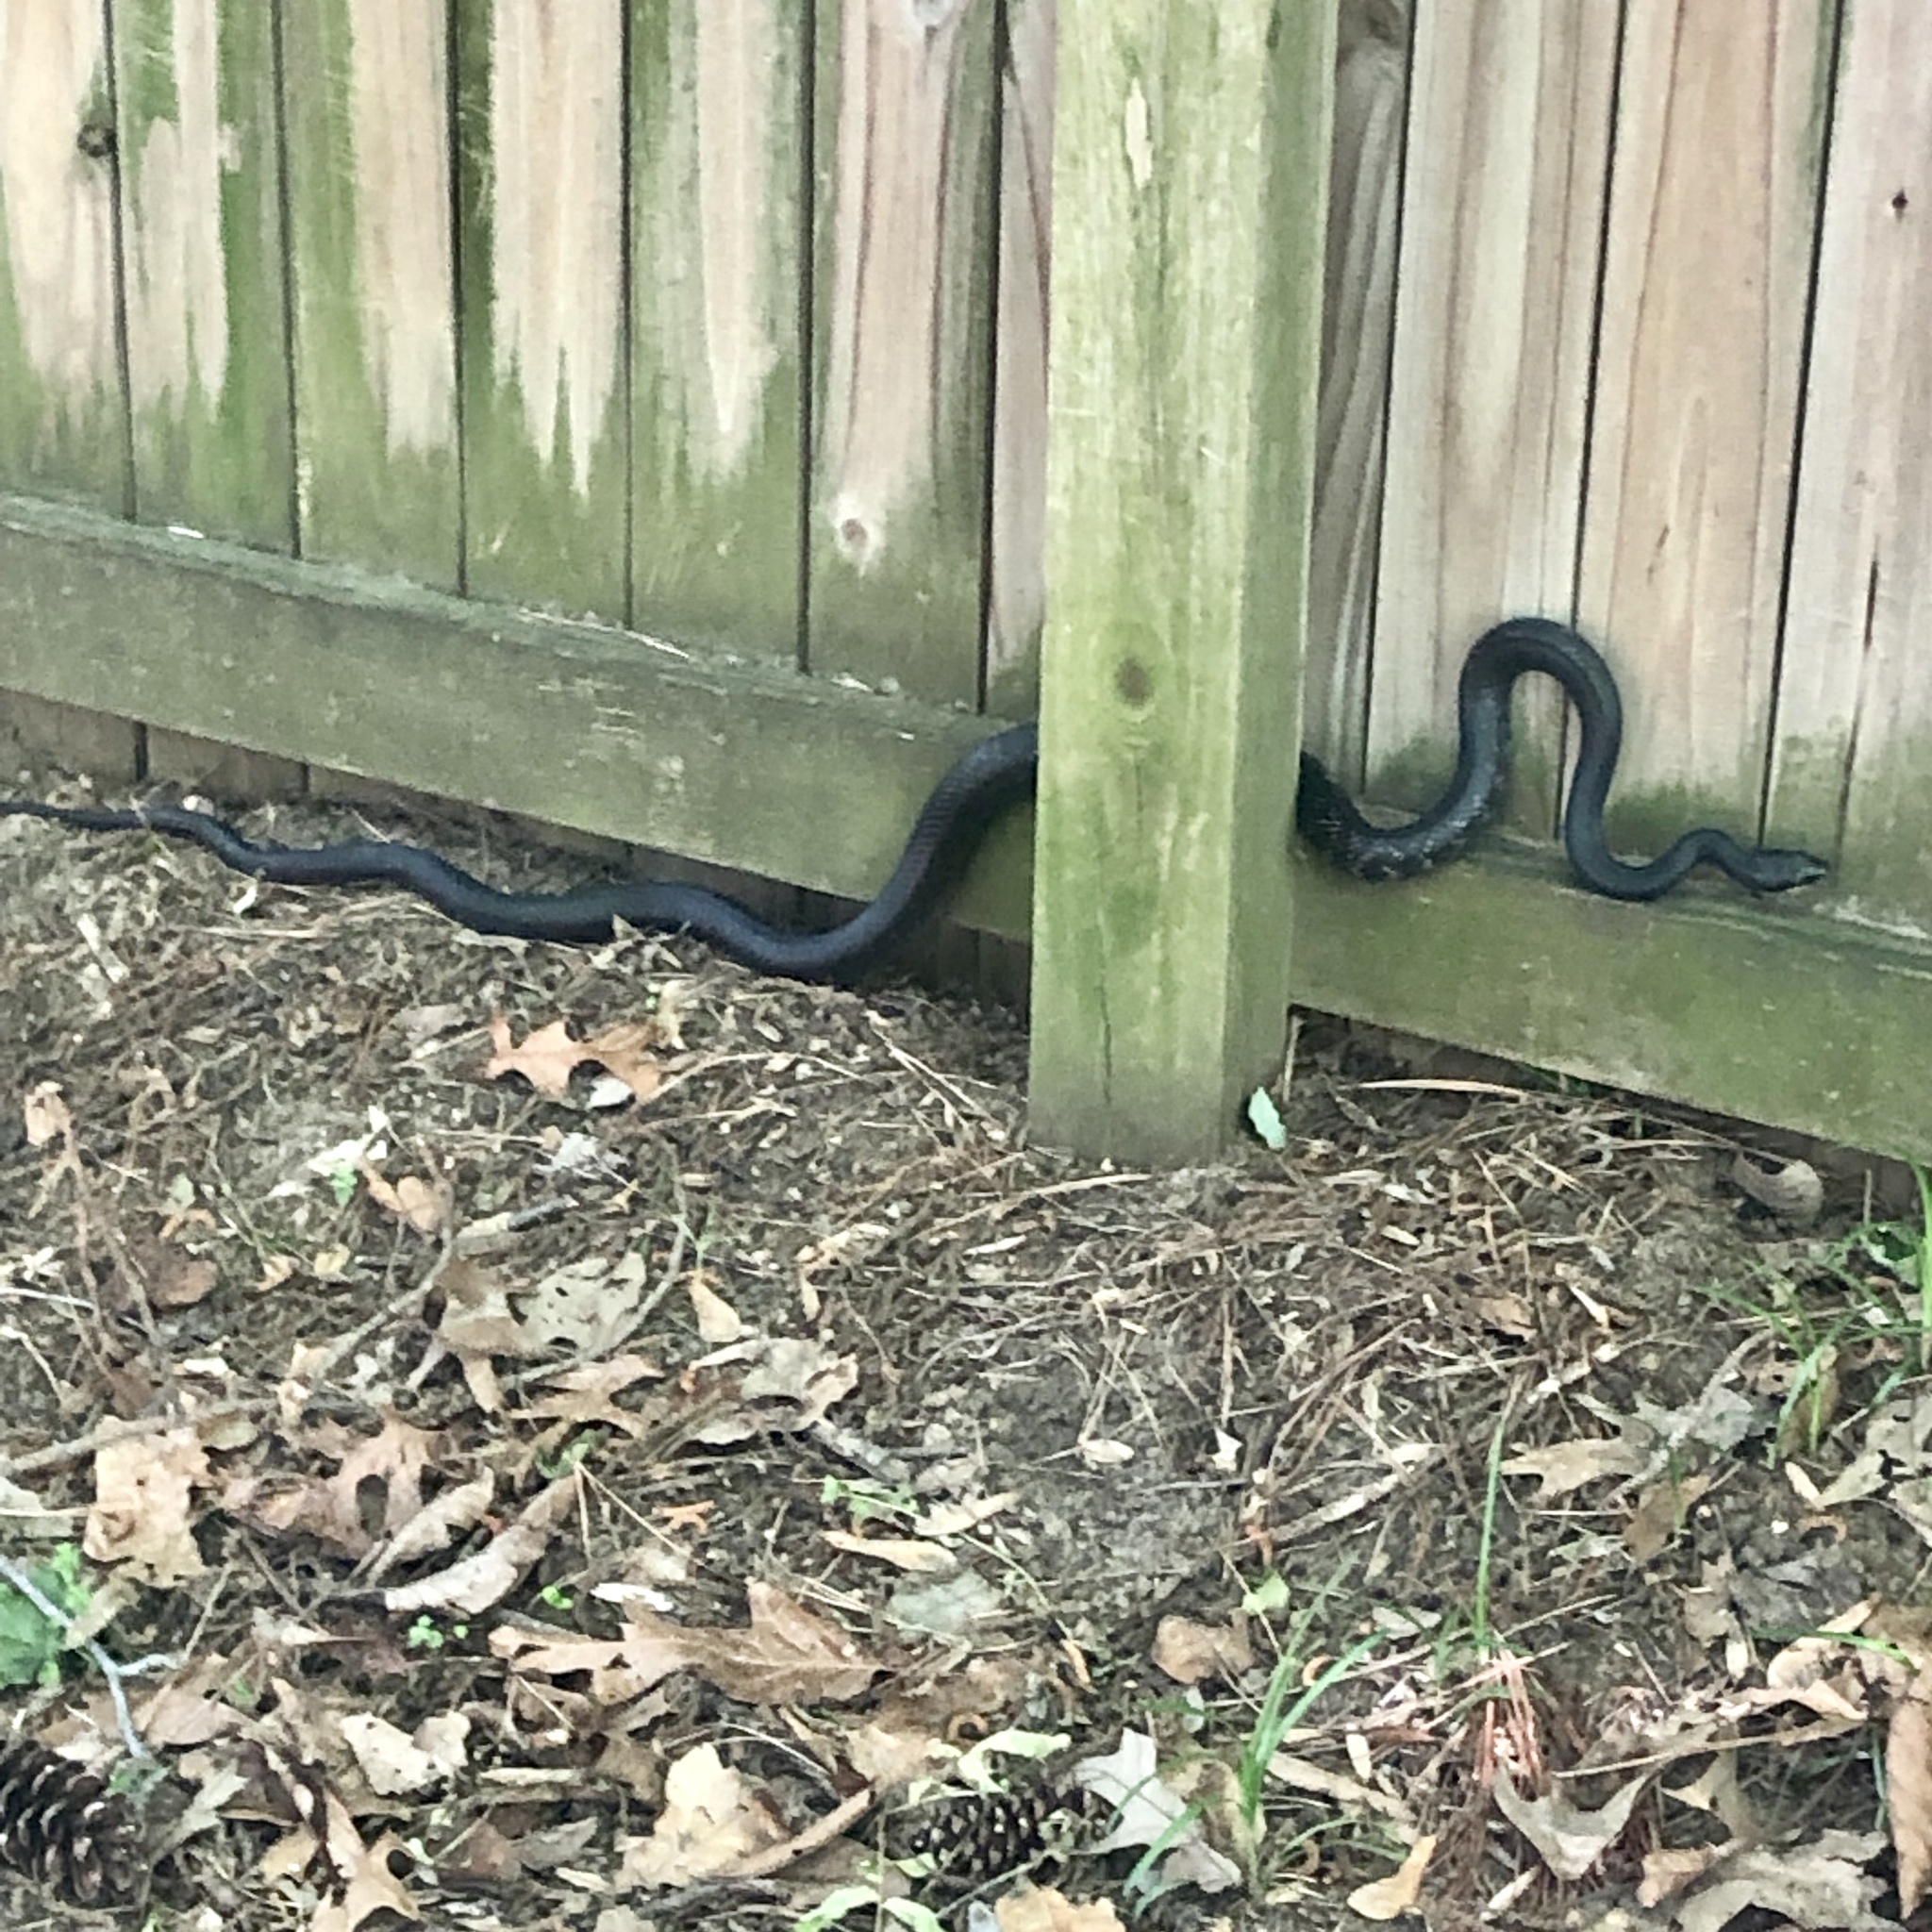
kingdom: Animalia
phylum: Chordata
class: Squamata
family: Colubridae
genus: Pantherophis
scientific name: Pantherophis alleghaniensis
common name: Eastern rat snake
